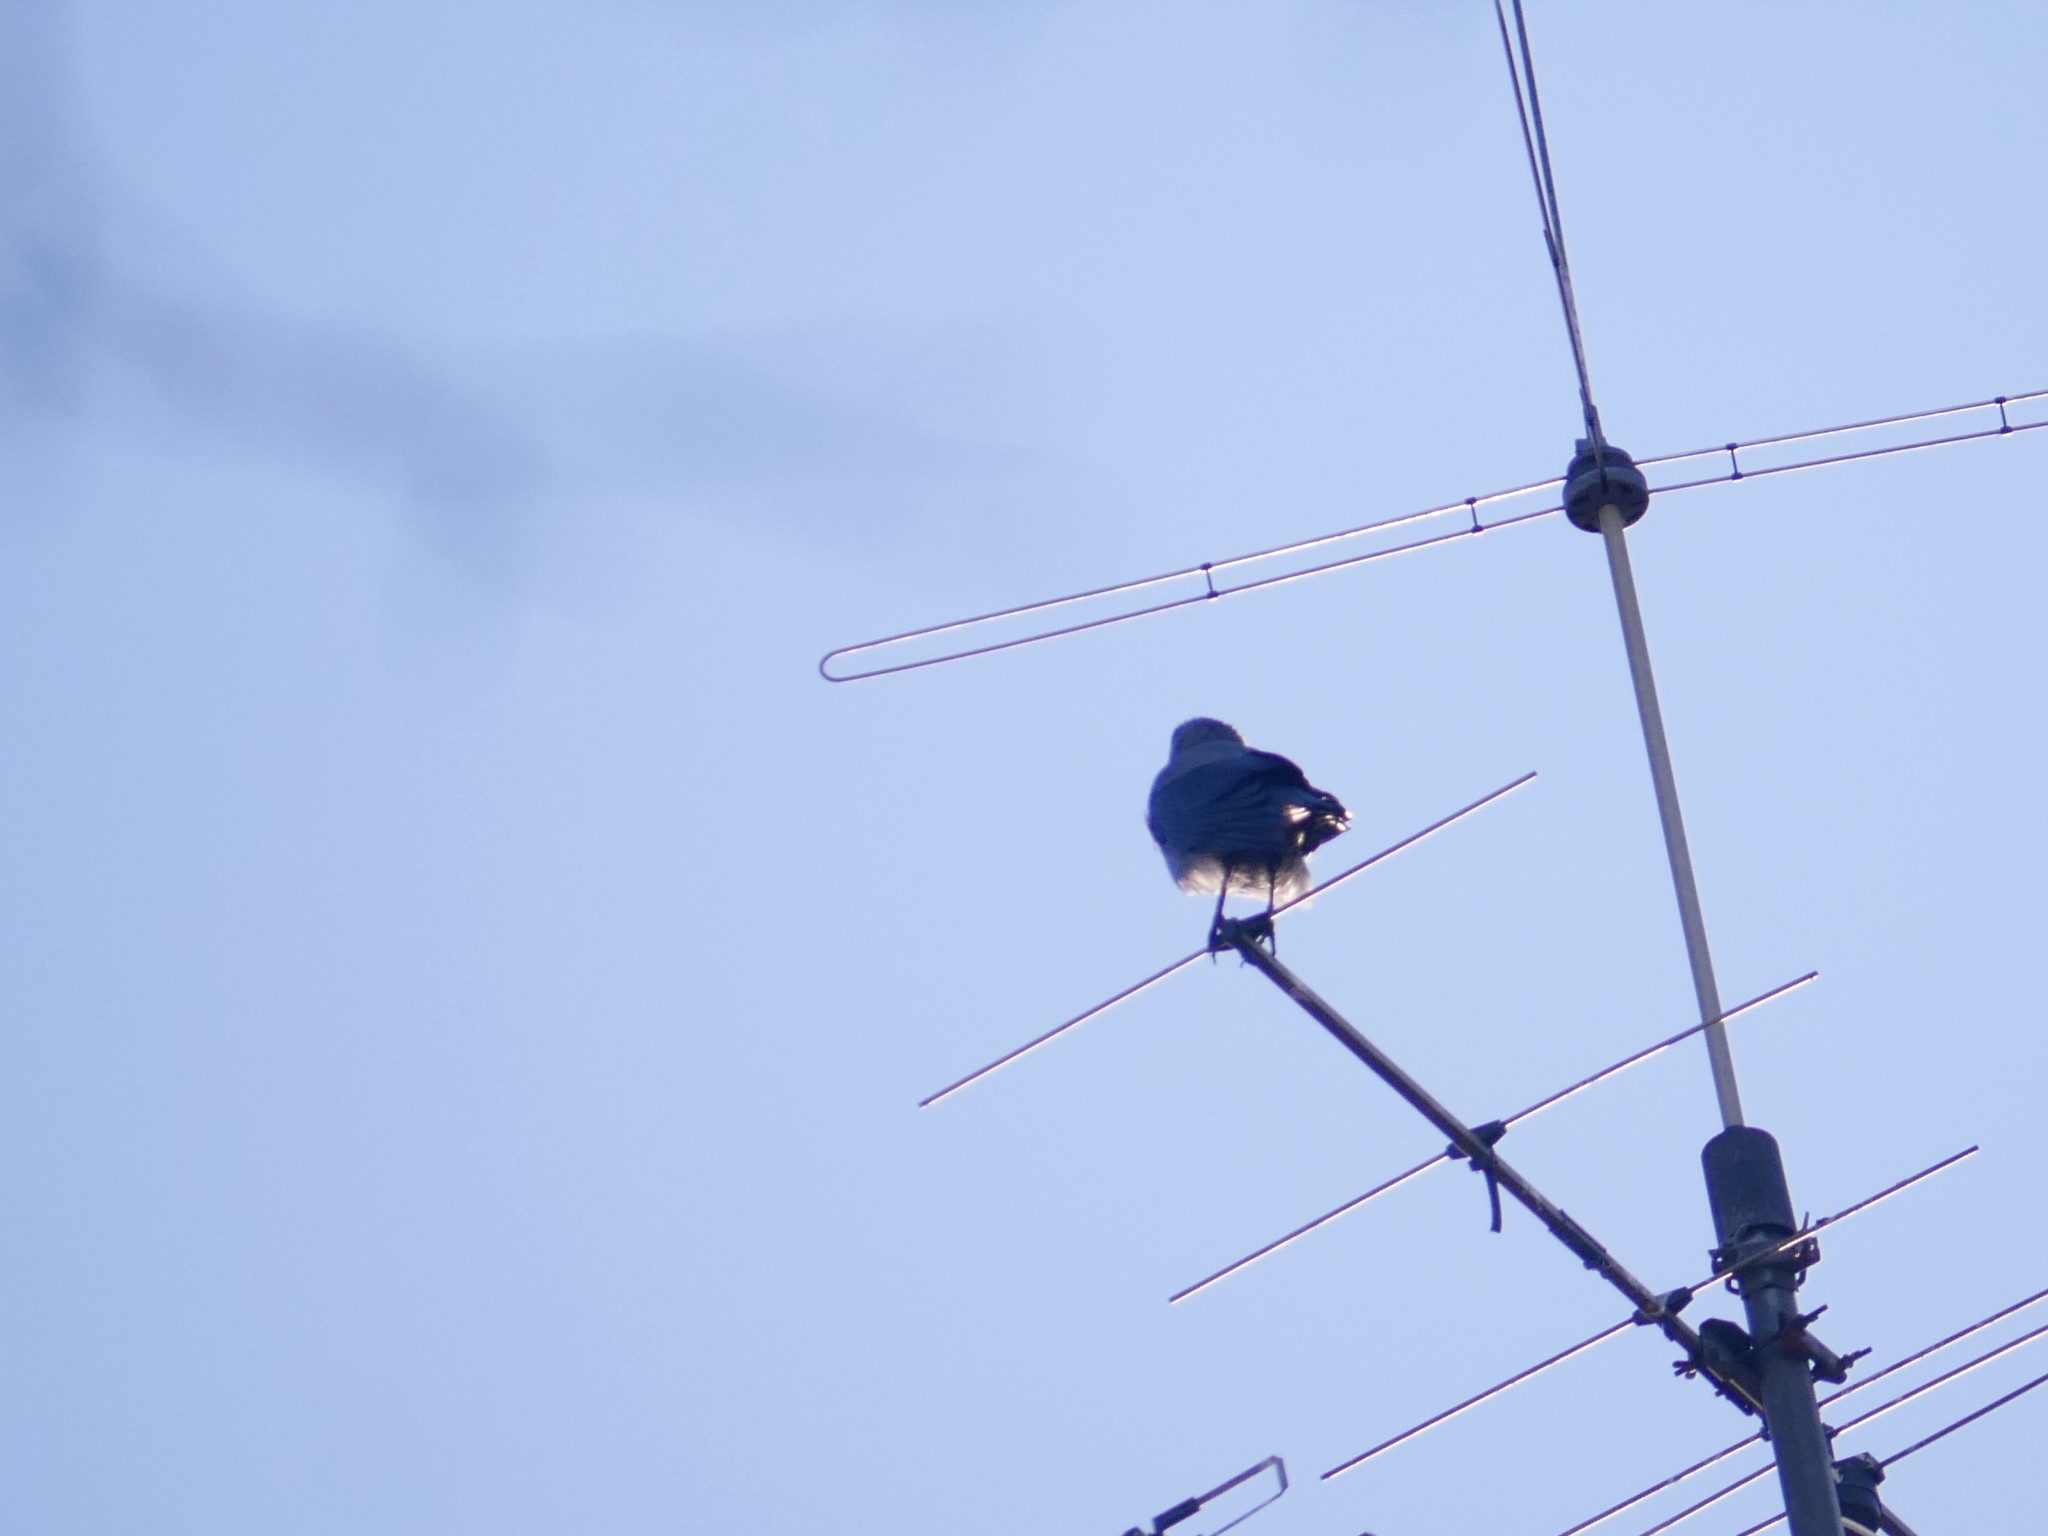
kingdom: Animalia
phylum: Chordata
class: Aves
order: Passeriformes
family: Corvidae
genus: Corvus
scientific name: Corvus cornix
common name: Hooded crow
